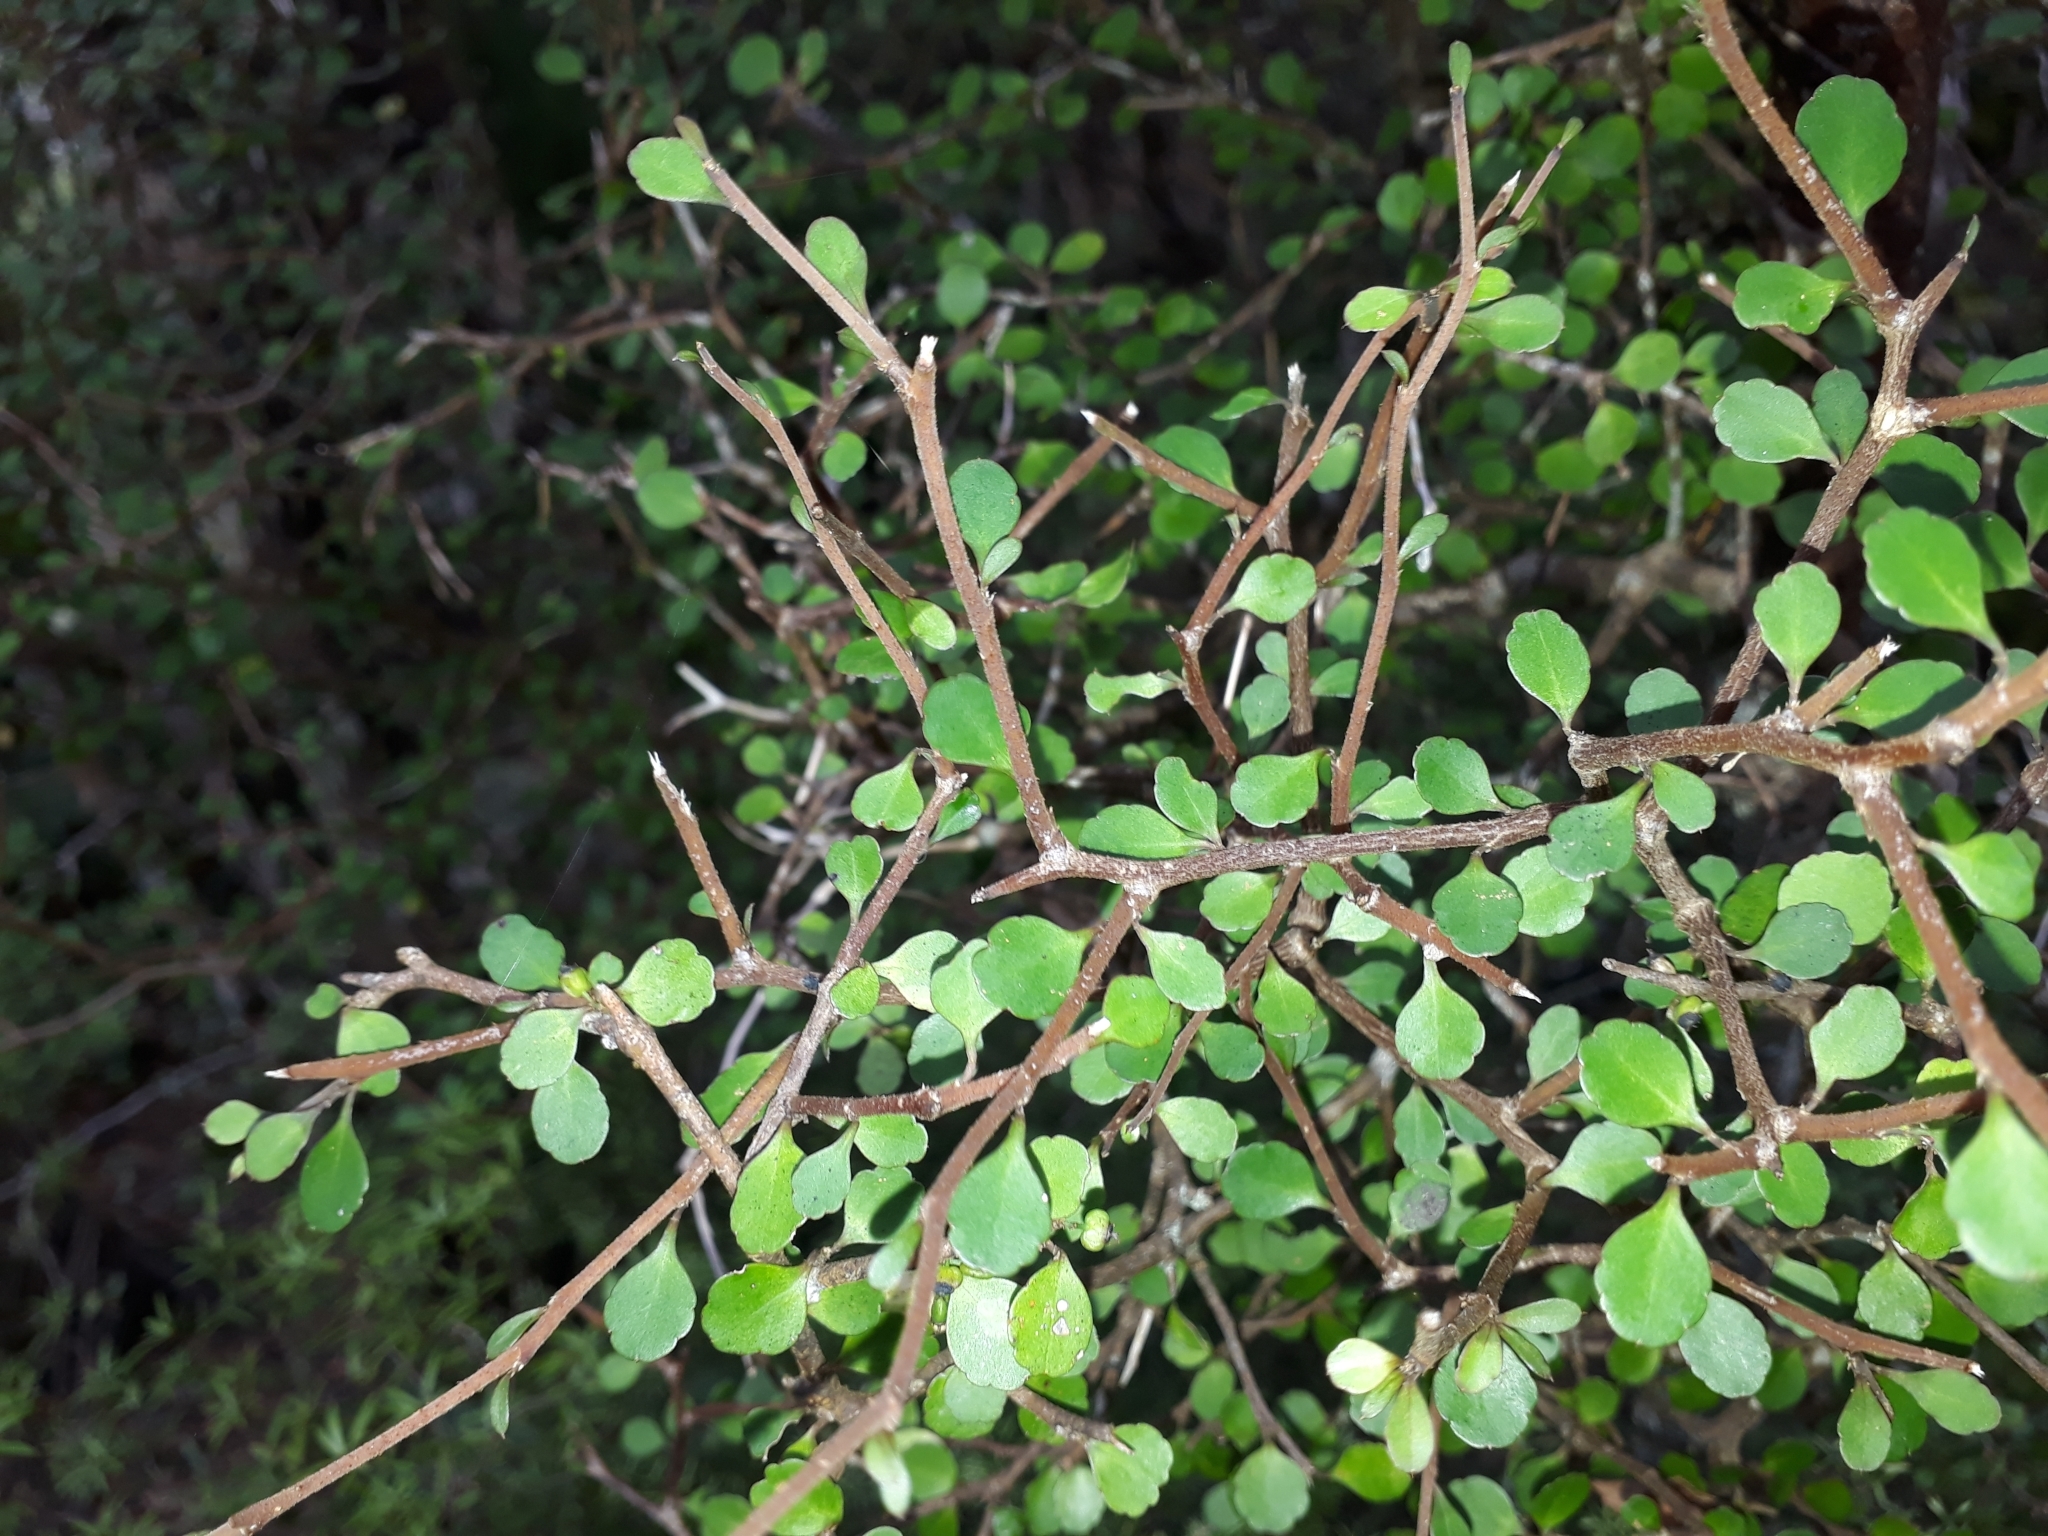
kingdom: Plantae
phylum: Tracheophyta
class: Magnoliopsida
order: Apiales
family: Araliaceae
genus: Raukaua
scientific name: Raukaua anomalus
